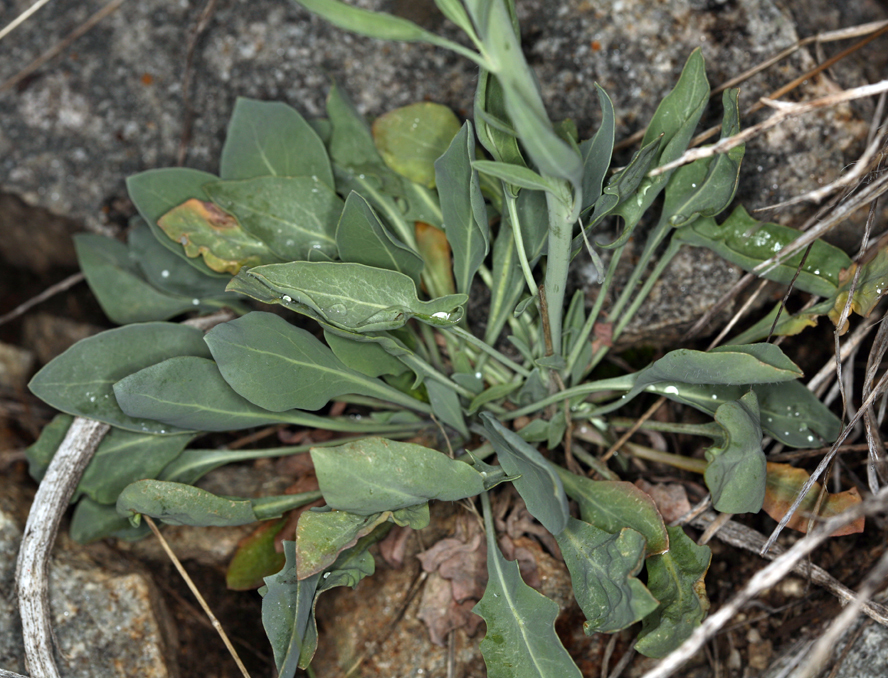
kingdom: Plantae
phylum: Tracheophyta
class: Magnoliopsida
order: Brassicales
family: Brassicaceae
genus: Streptanthus
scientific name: Streptanthus crassicaulis
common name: Thick-stem wild cabbage
